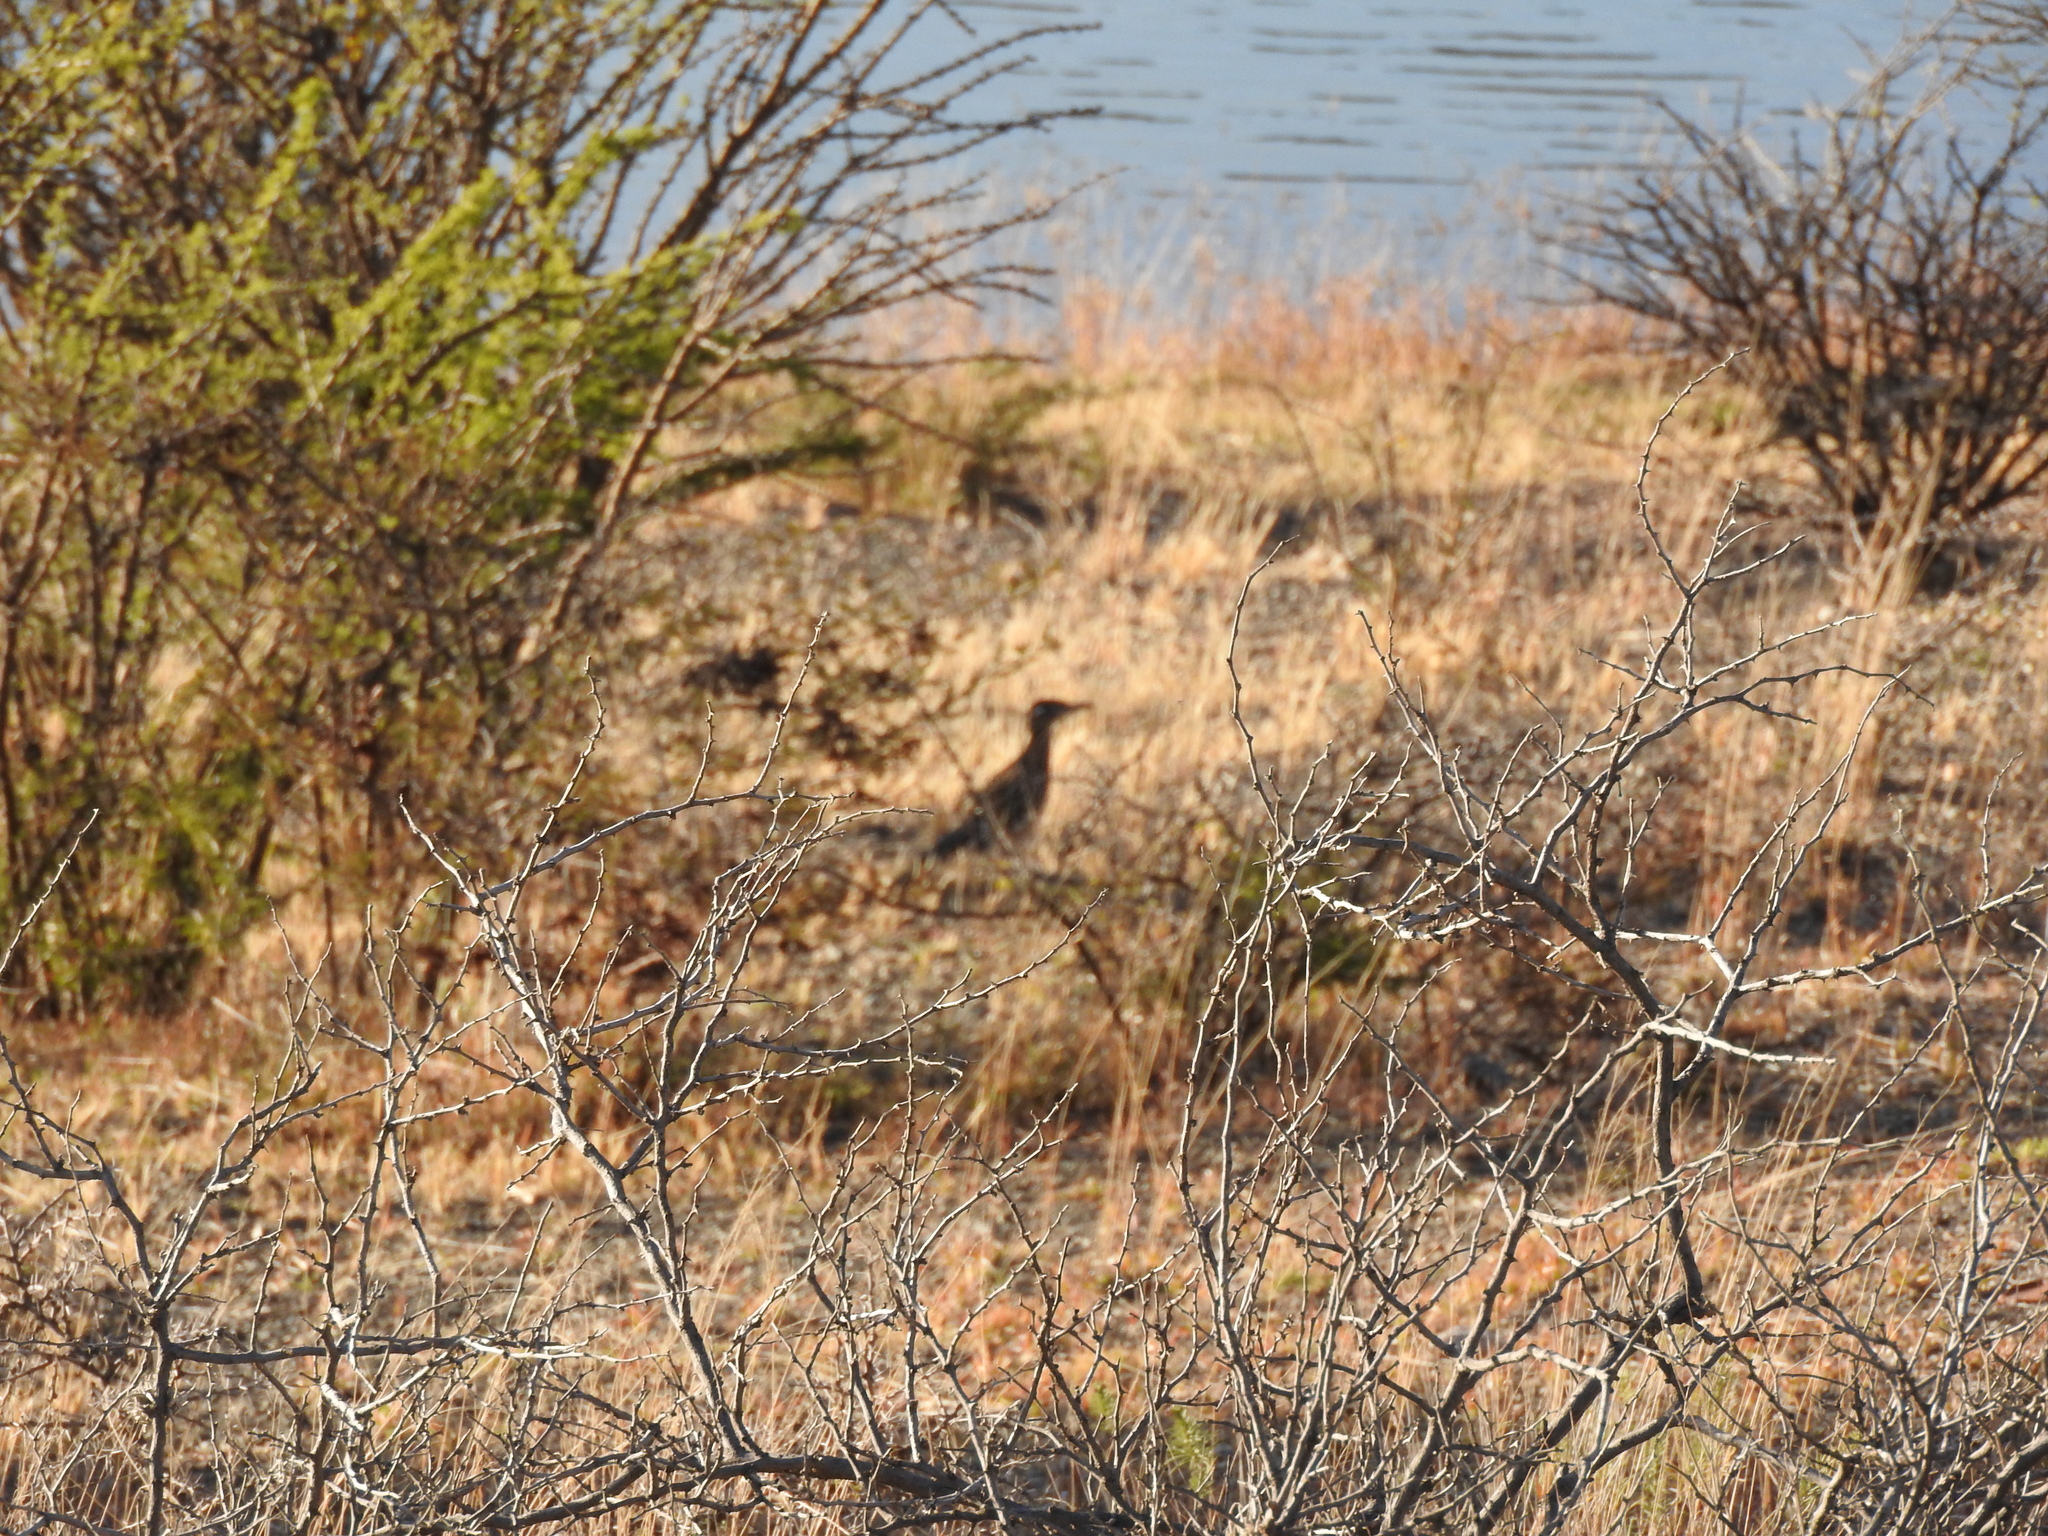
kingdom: Animalia
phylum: Chordata
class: Aves
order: Cuculiformes
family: Cuculidae
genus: Geococcyx
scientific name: Geococcyx californianus
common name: Greater roadrunner
